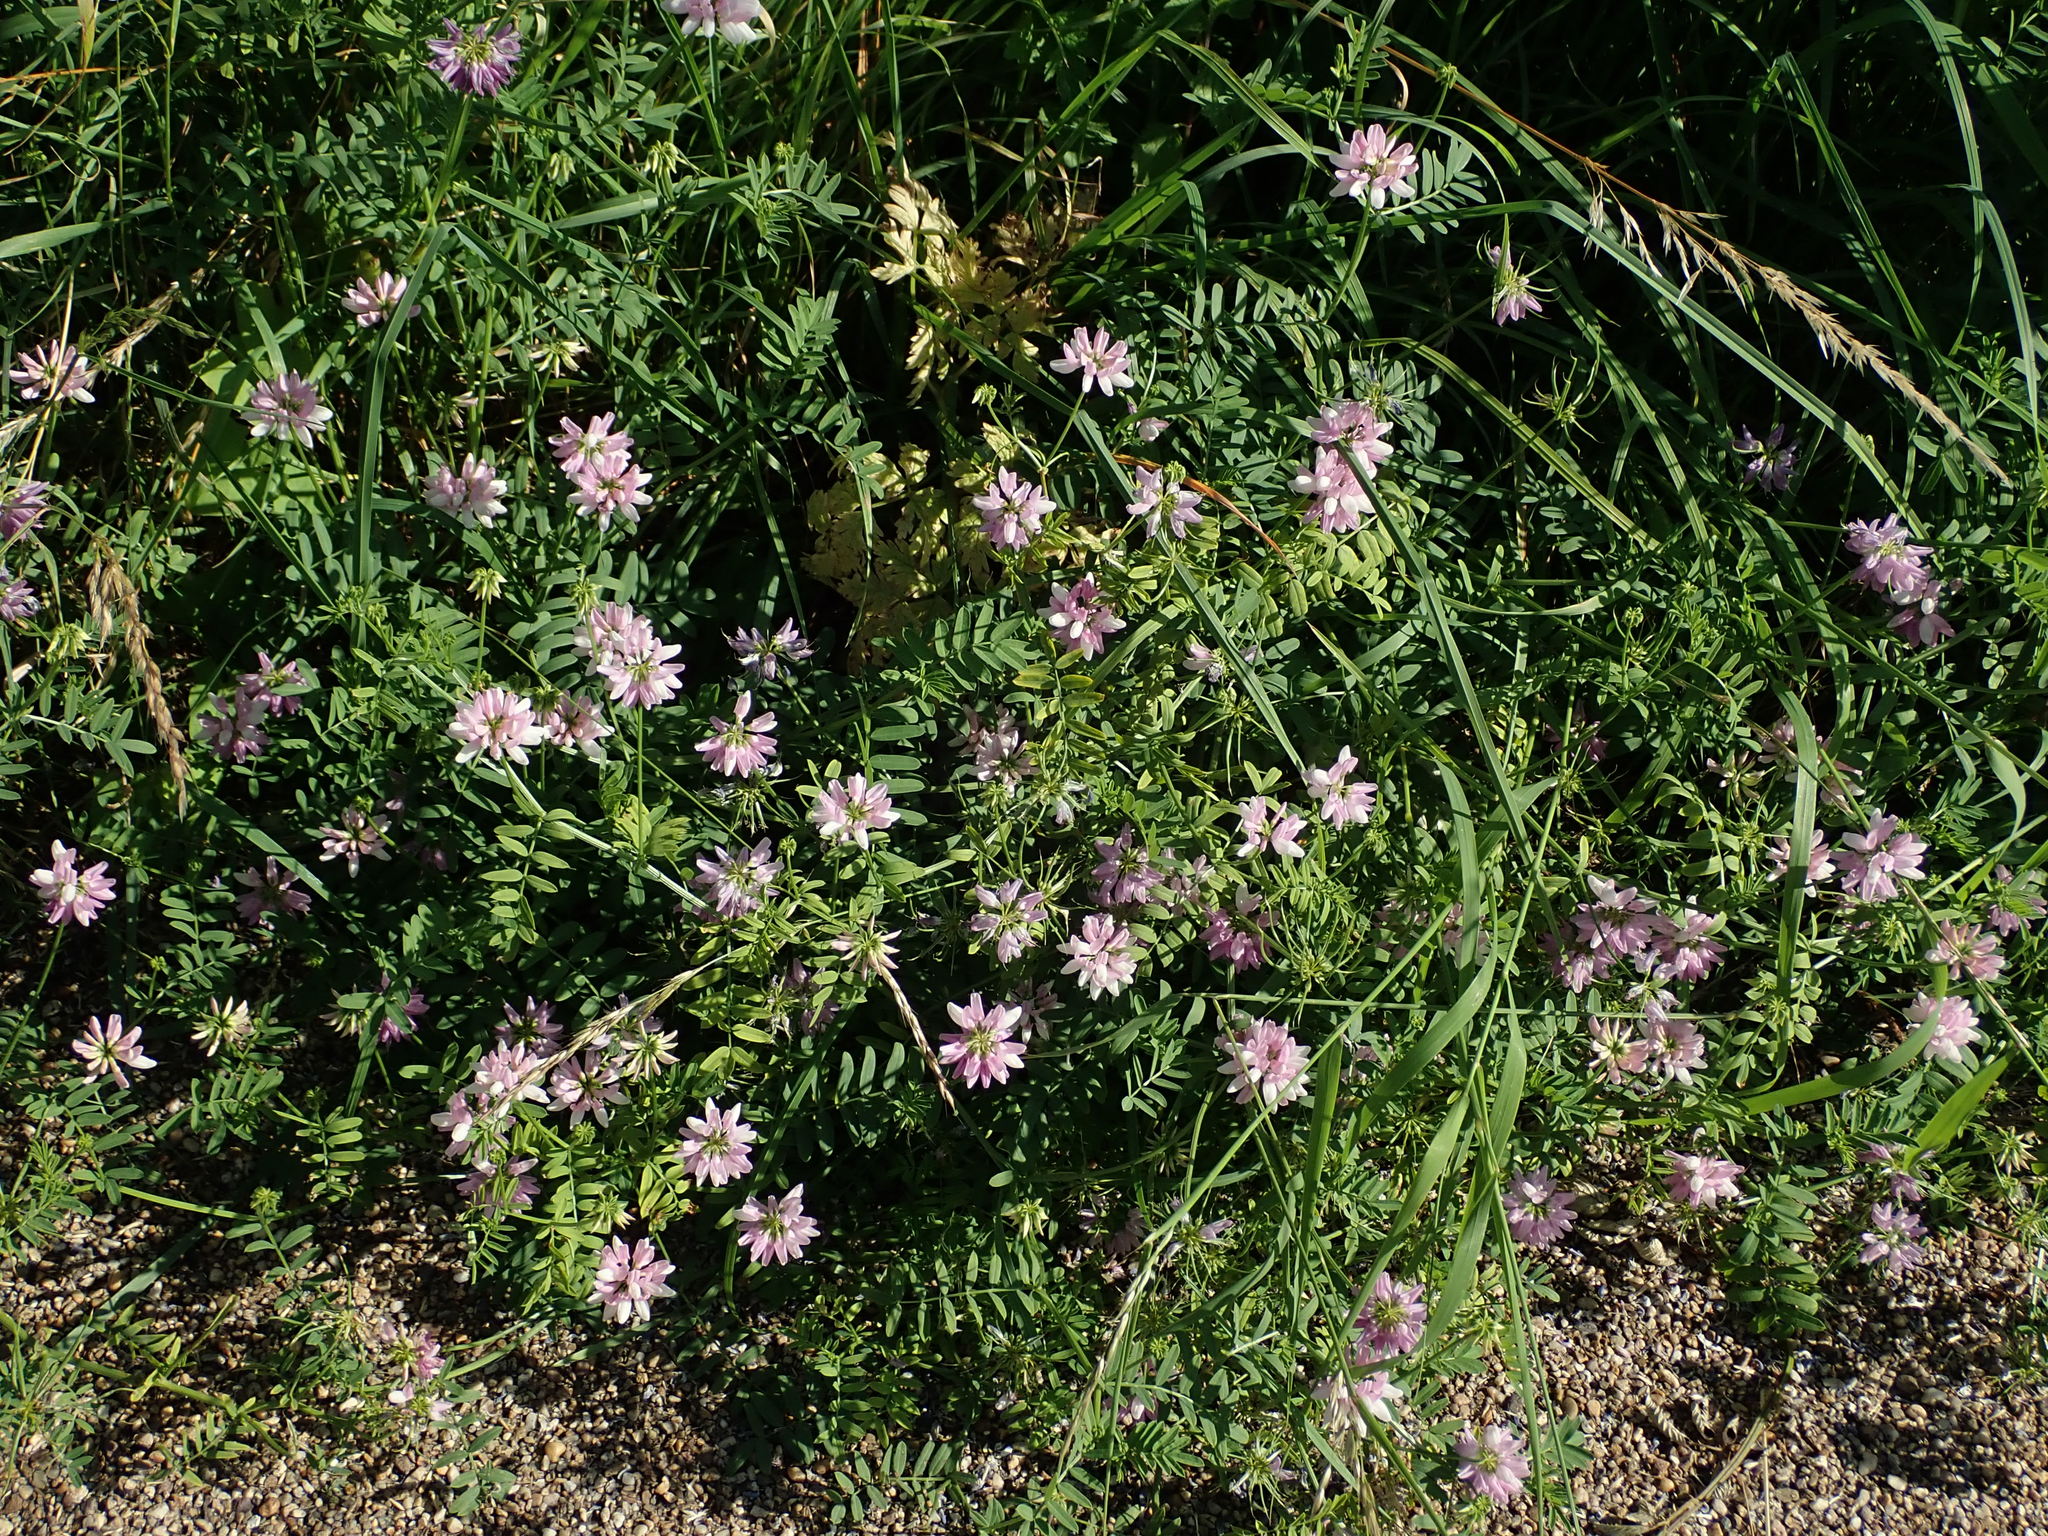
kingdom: Plantae
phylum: Tracheophyta
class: Magnoliopsida
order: Fabales
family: Fabaceae
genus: Coronilla
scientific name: Coronilla varia
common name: Crownvetch
